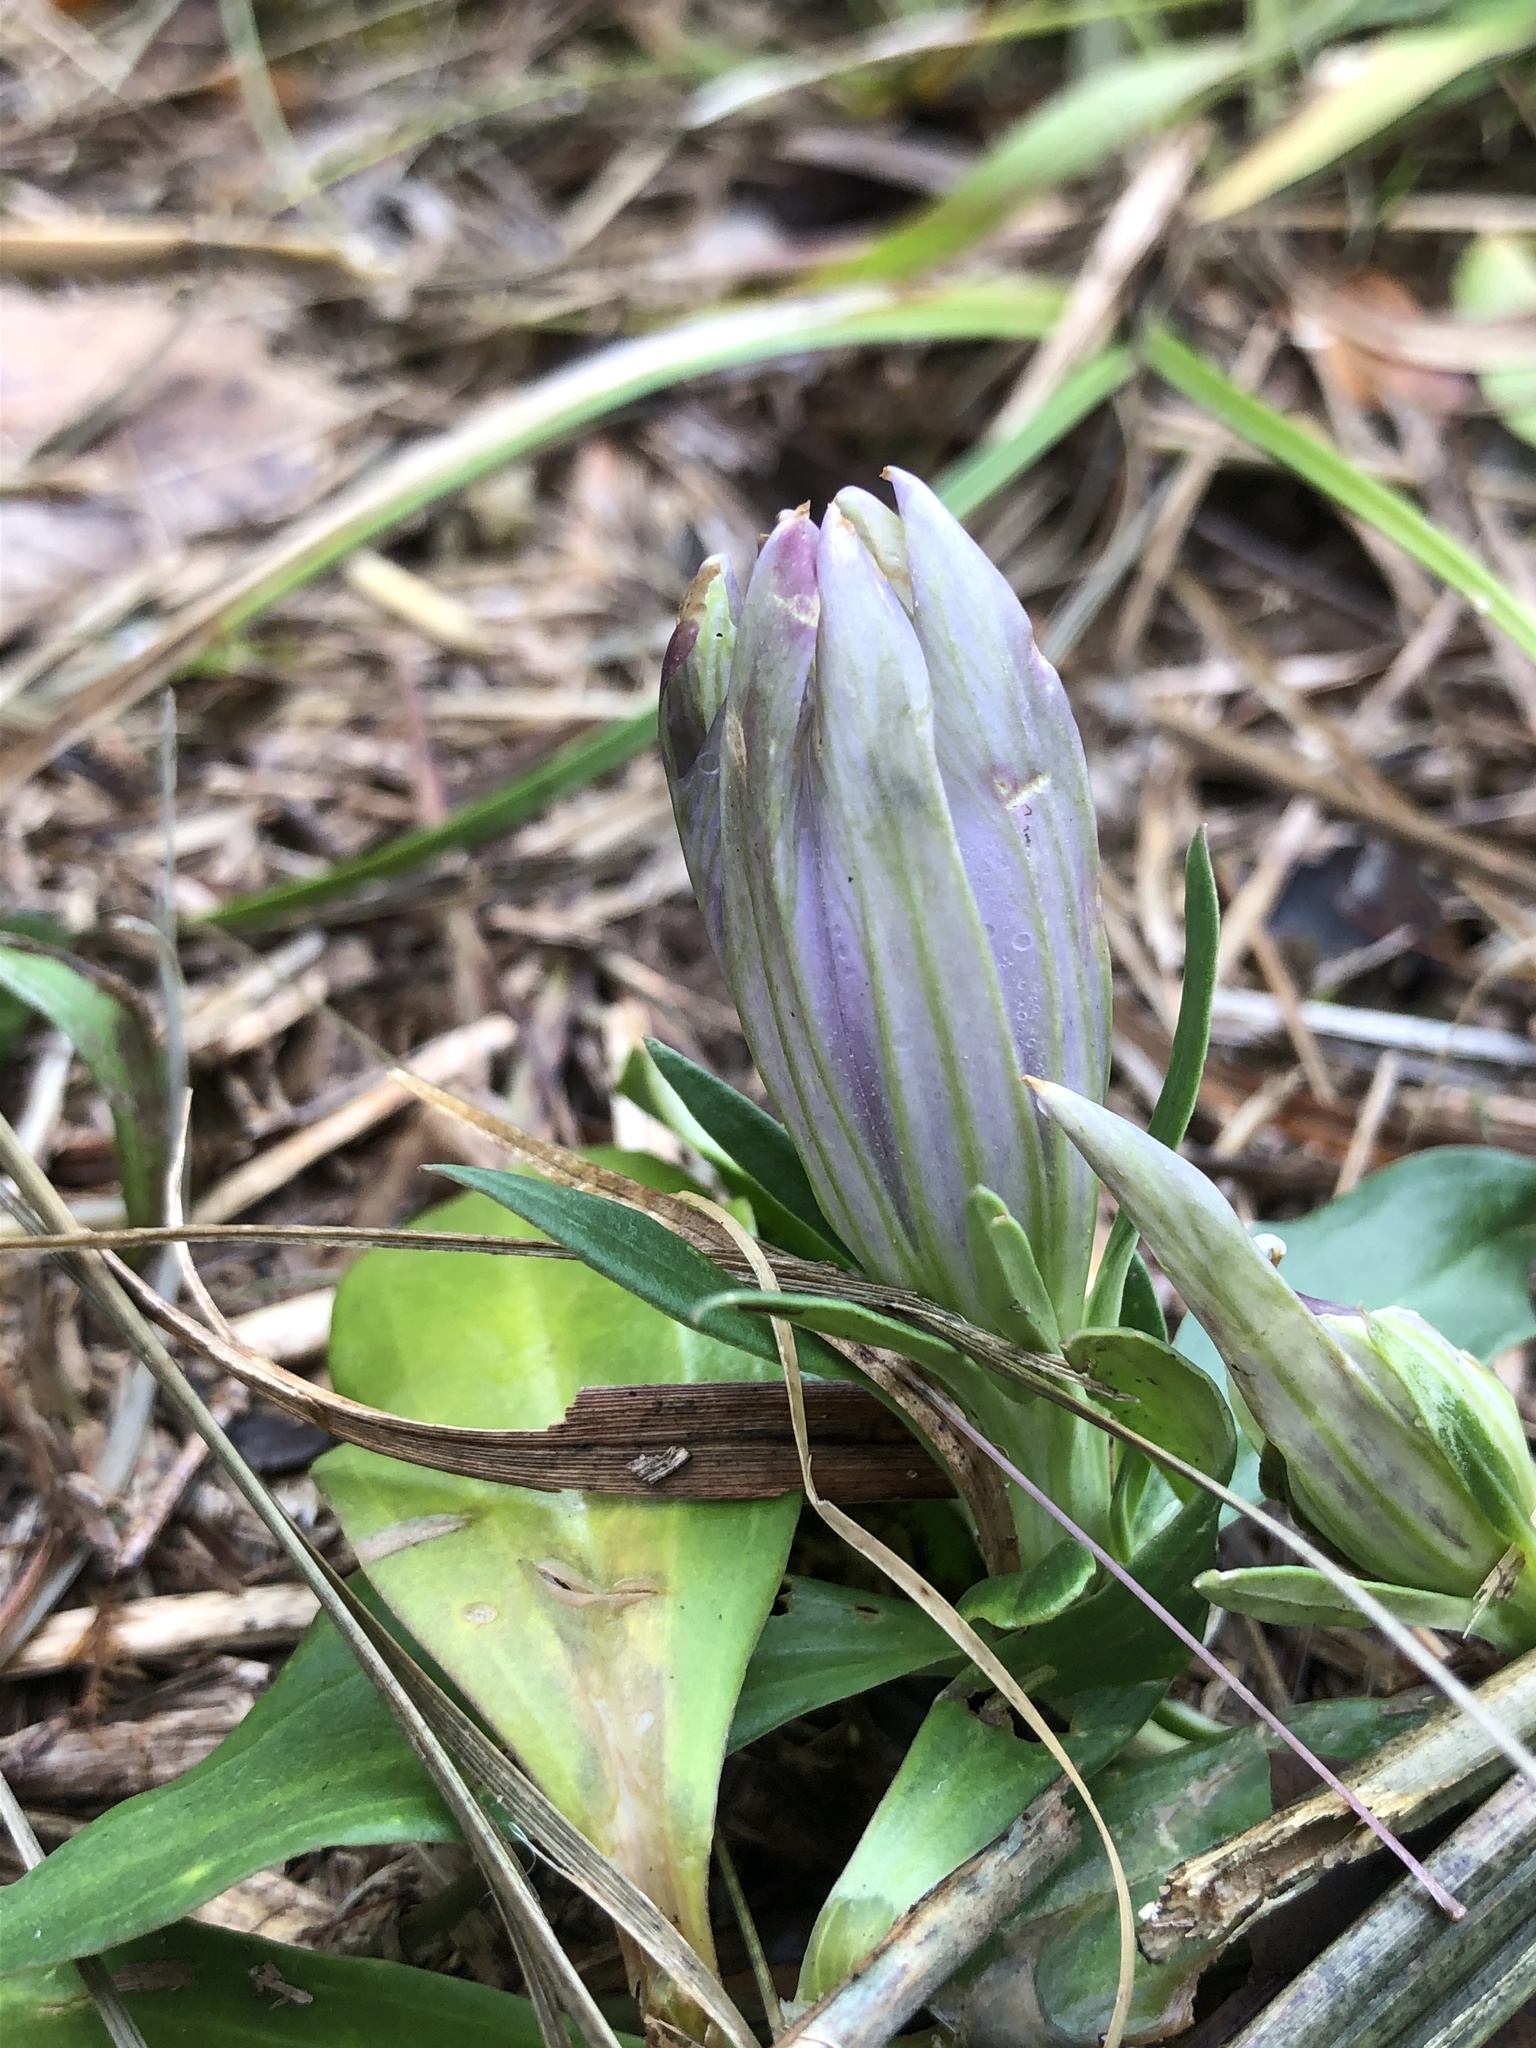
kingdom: Plantae
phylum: Tracheophyta
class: Magnoliopsida
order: Gentianales
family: Gentianaceae
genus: Gentiana
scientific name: Gentiana villosa
